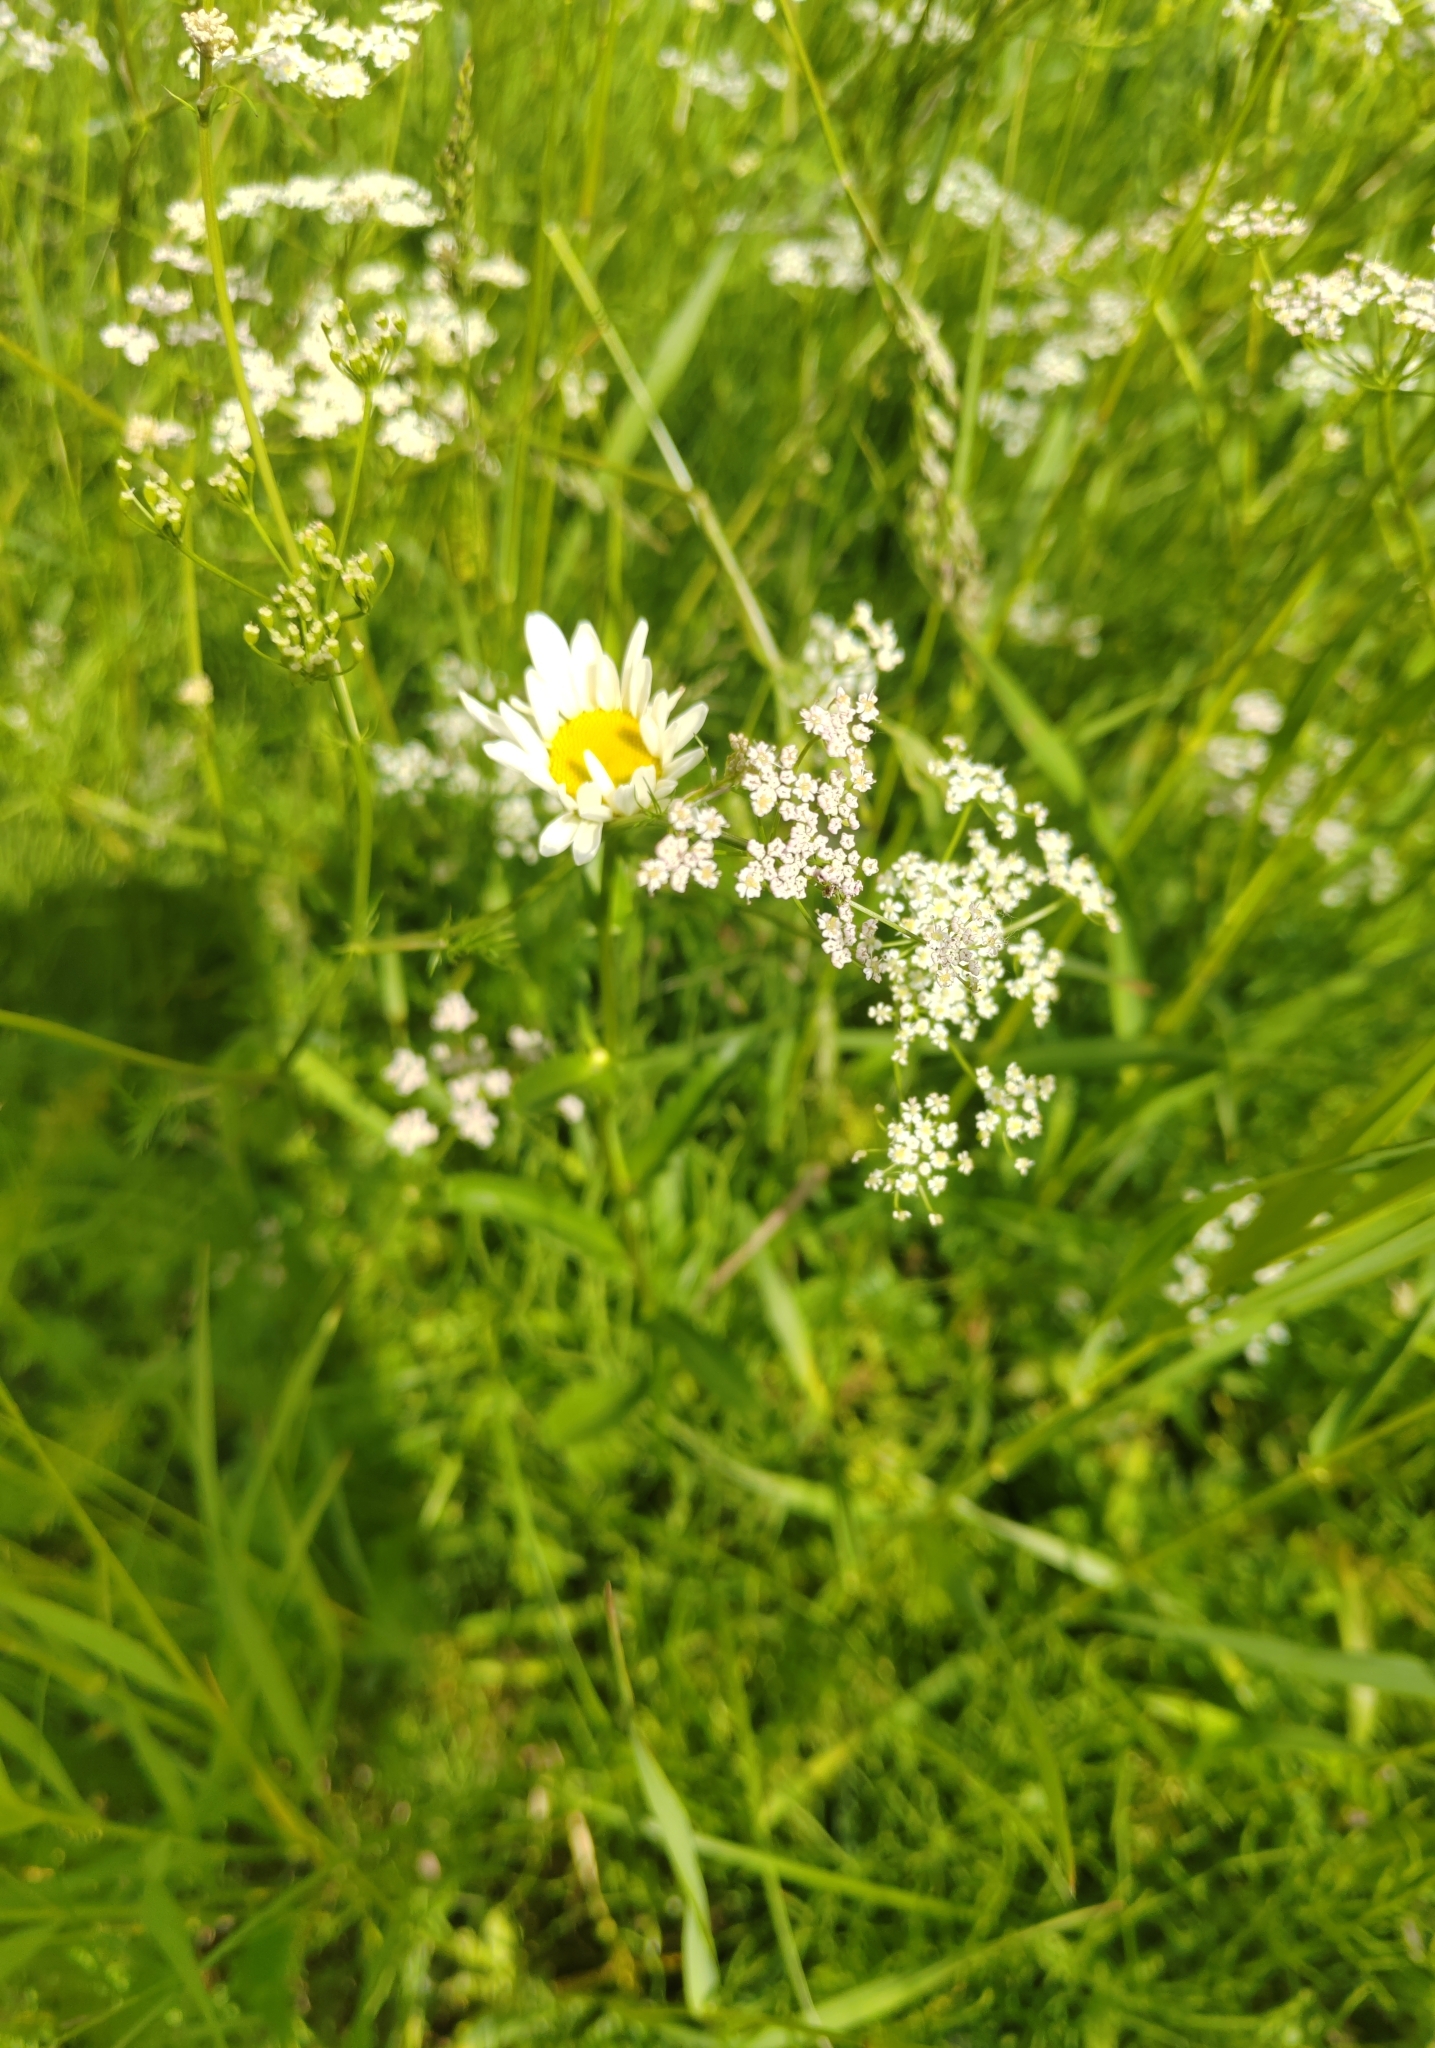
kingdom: Plantae
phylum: Tracheophyta
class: Magnoliopsida
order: Asterales
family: Asteraceae
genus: Leucanthemum
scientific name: Leucanthemum ircutianum
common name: Daisy
